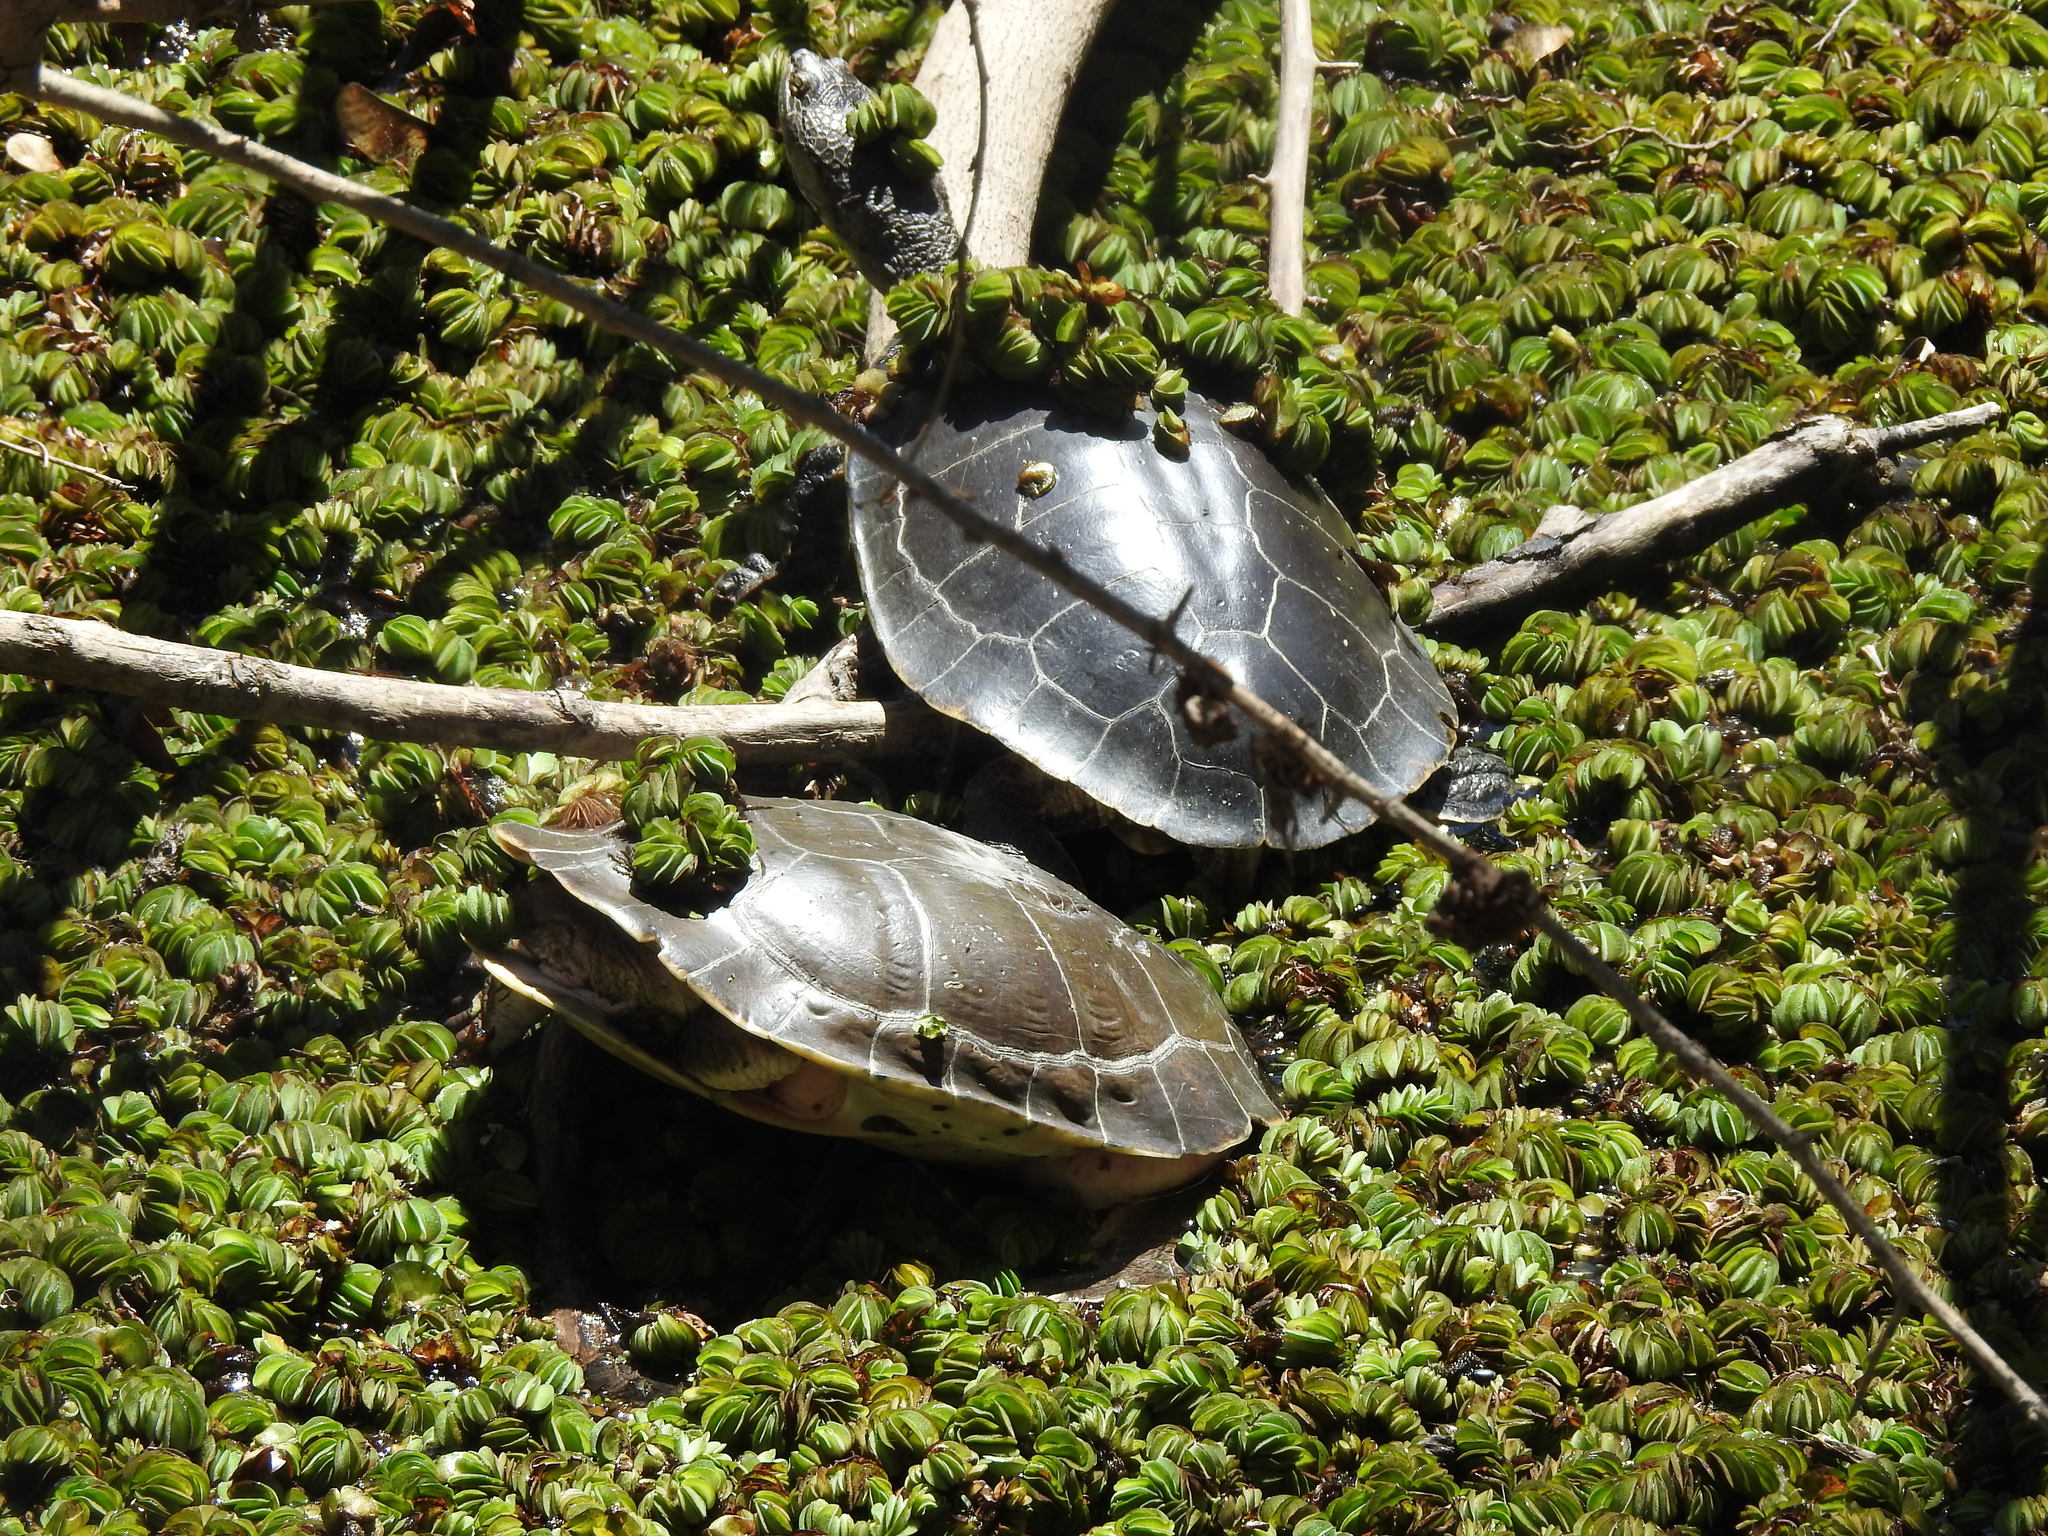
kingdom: Animalia
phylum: Chordata
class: Testudines
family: Chelidae
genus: Phrynops
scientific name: Phrynops hilarii
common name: Side-necked turtle of saint hillaire
